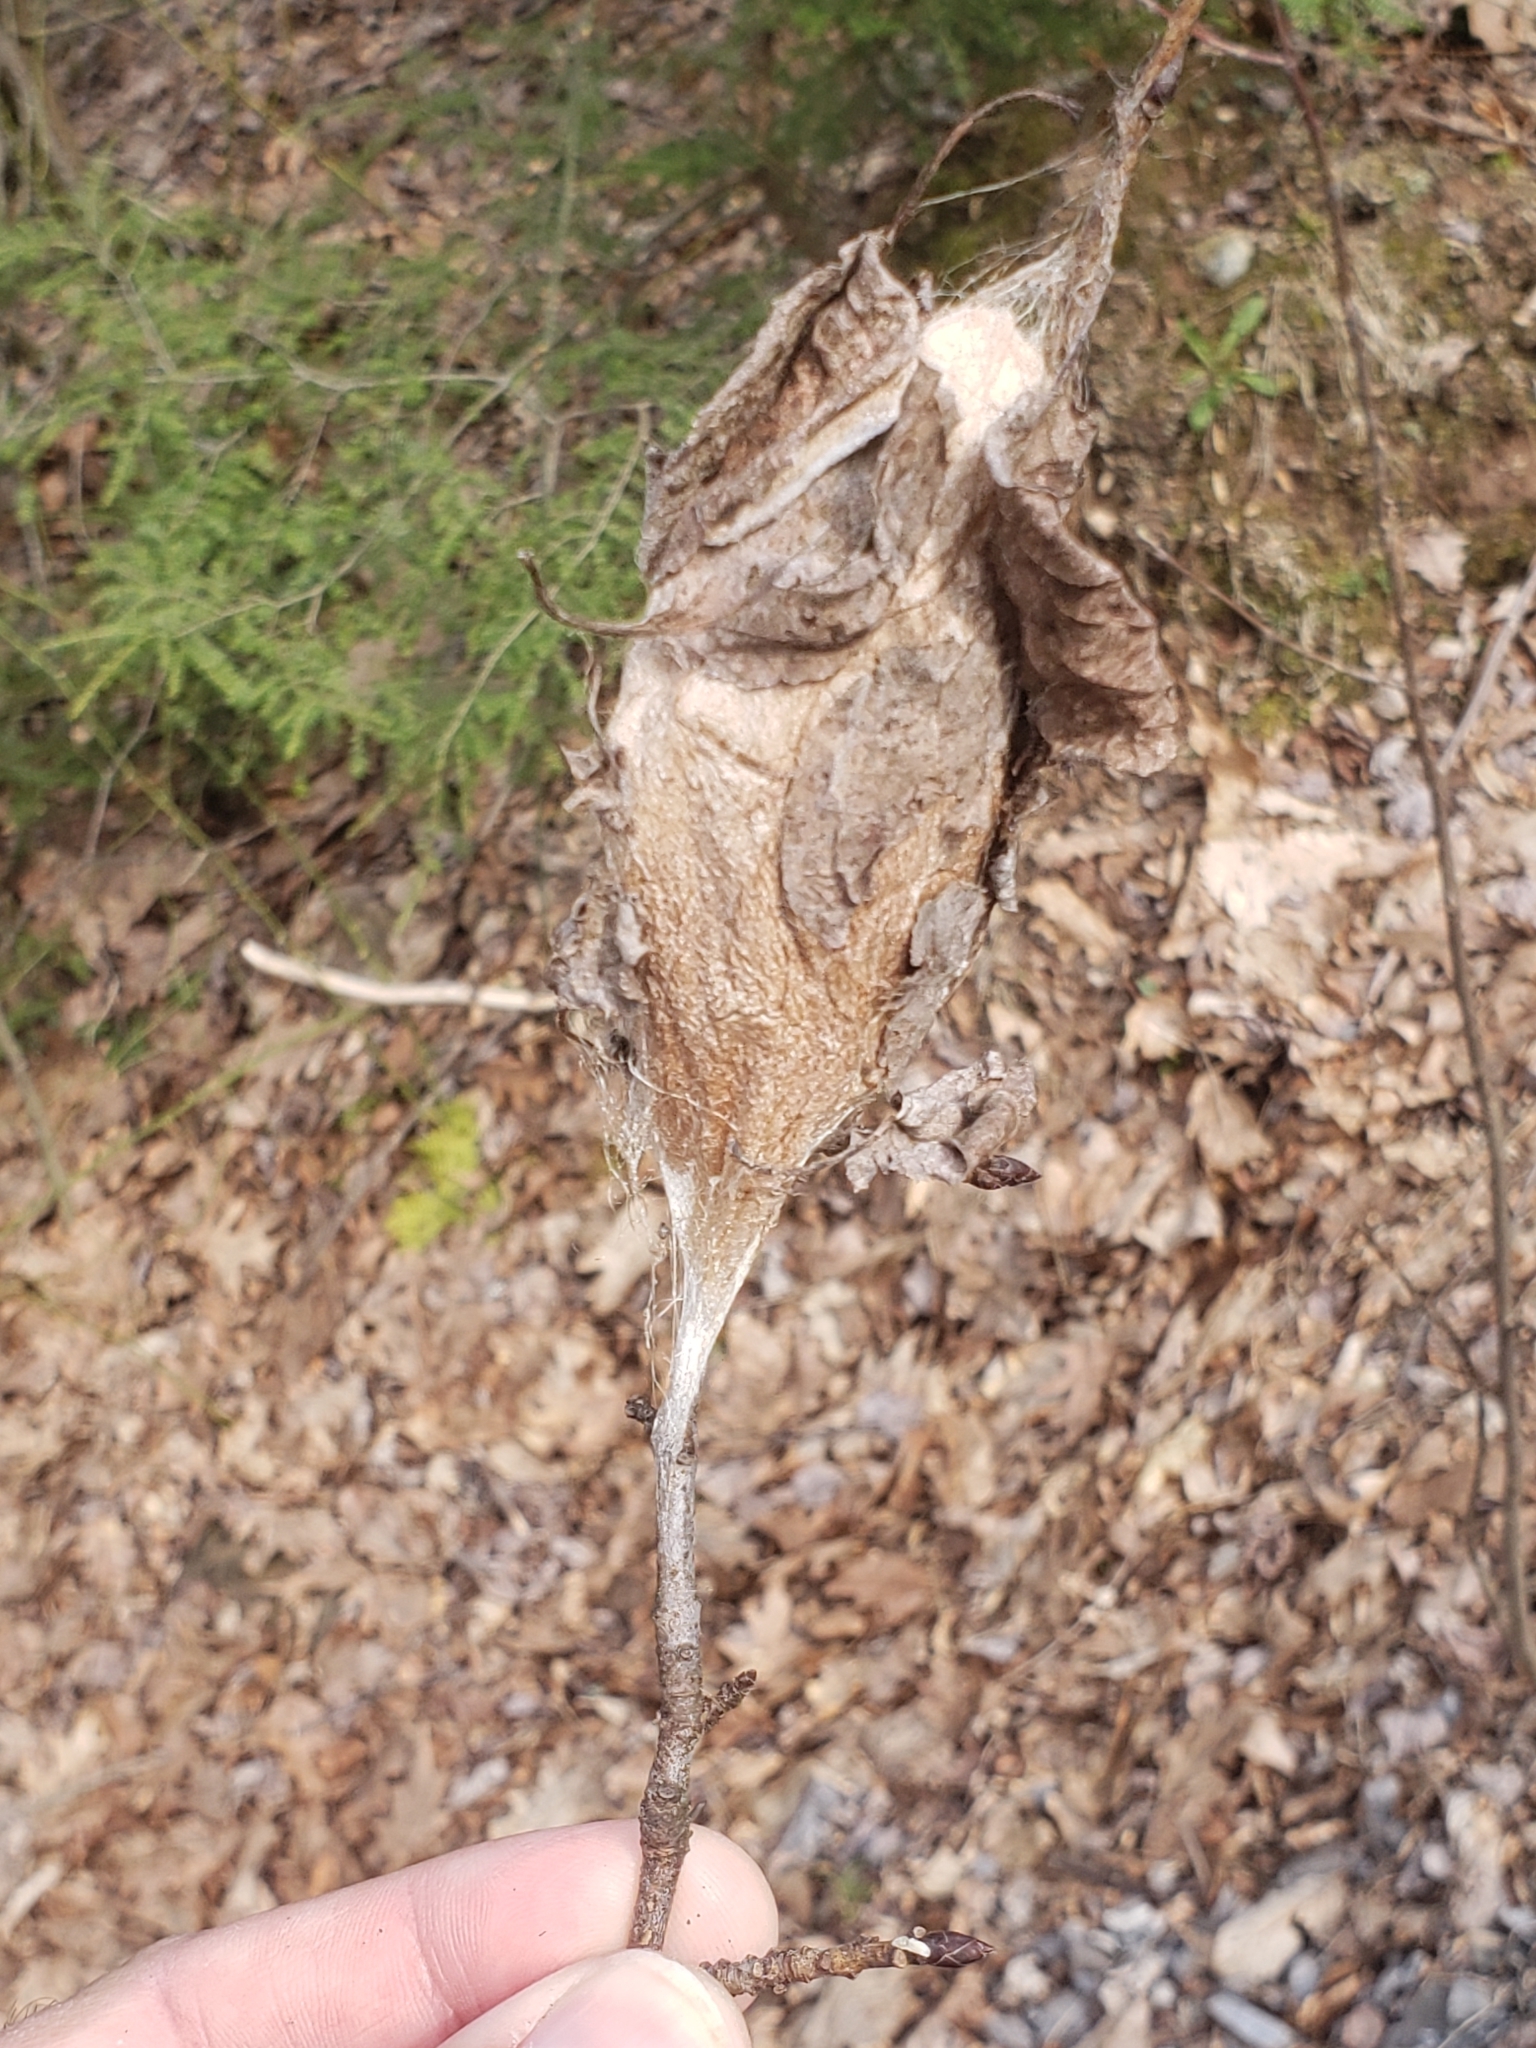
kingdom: Animalia
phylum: Arthropoda
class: Insecta
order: Lepidoptera
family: Saturniidae
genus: Hyalophora
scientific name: Hyalophora cecropia
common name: Cecropia silkmoth
